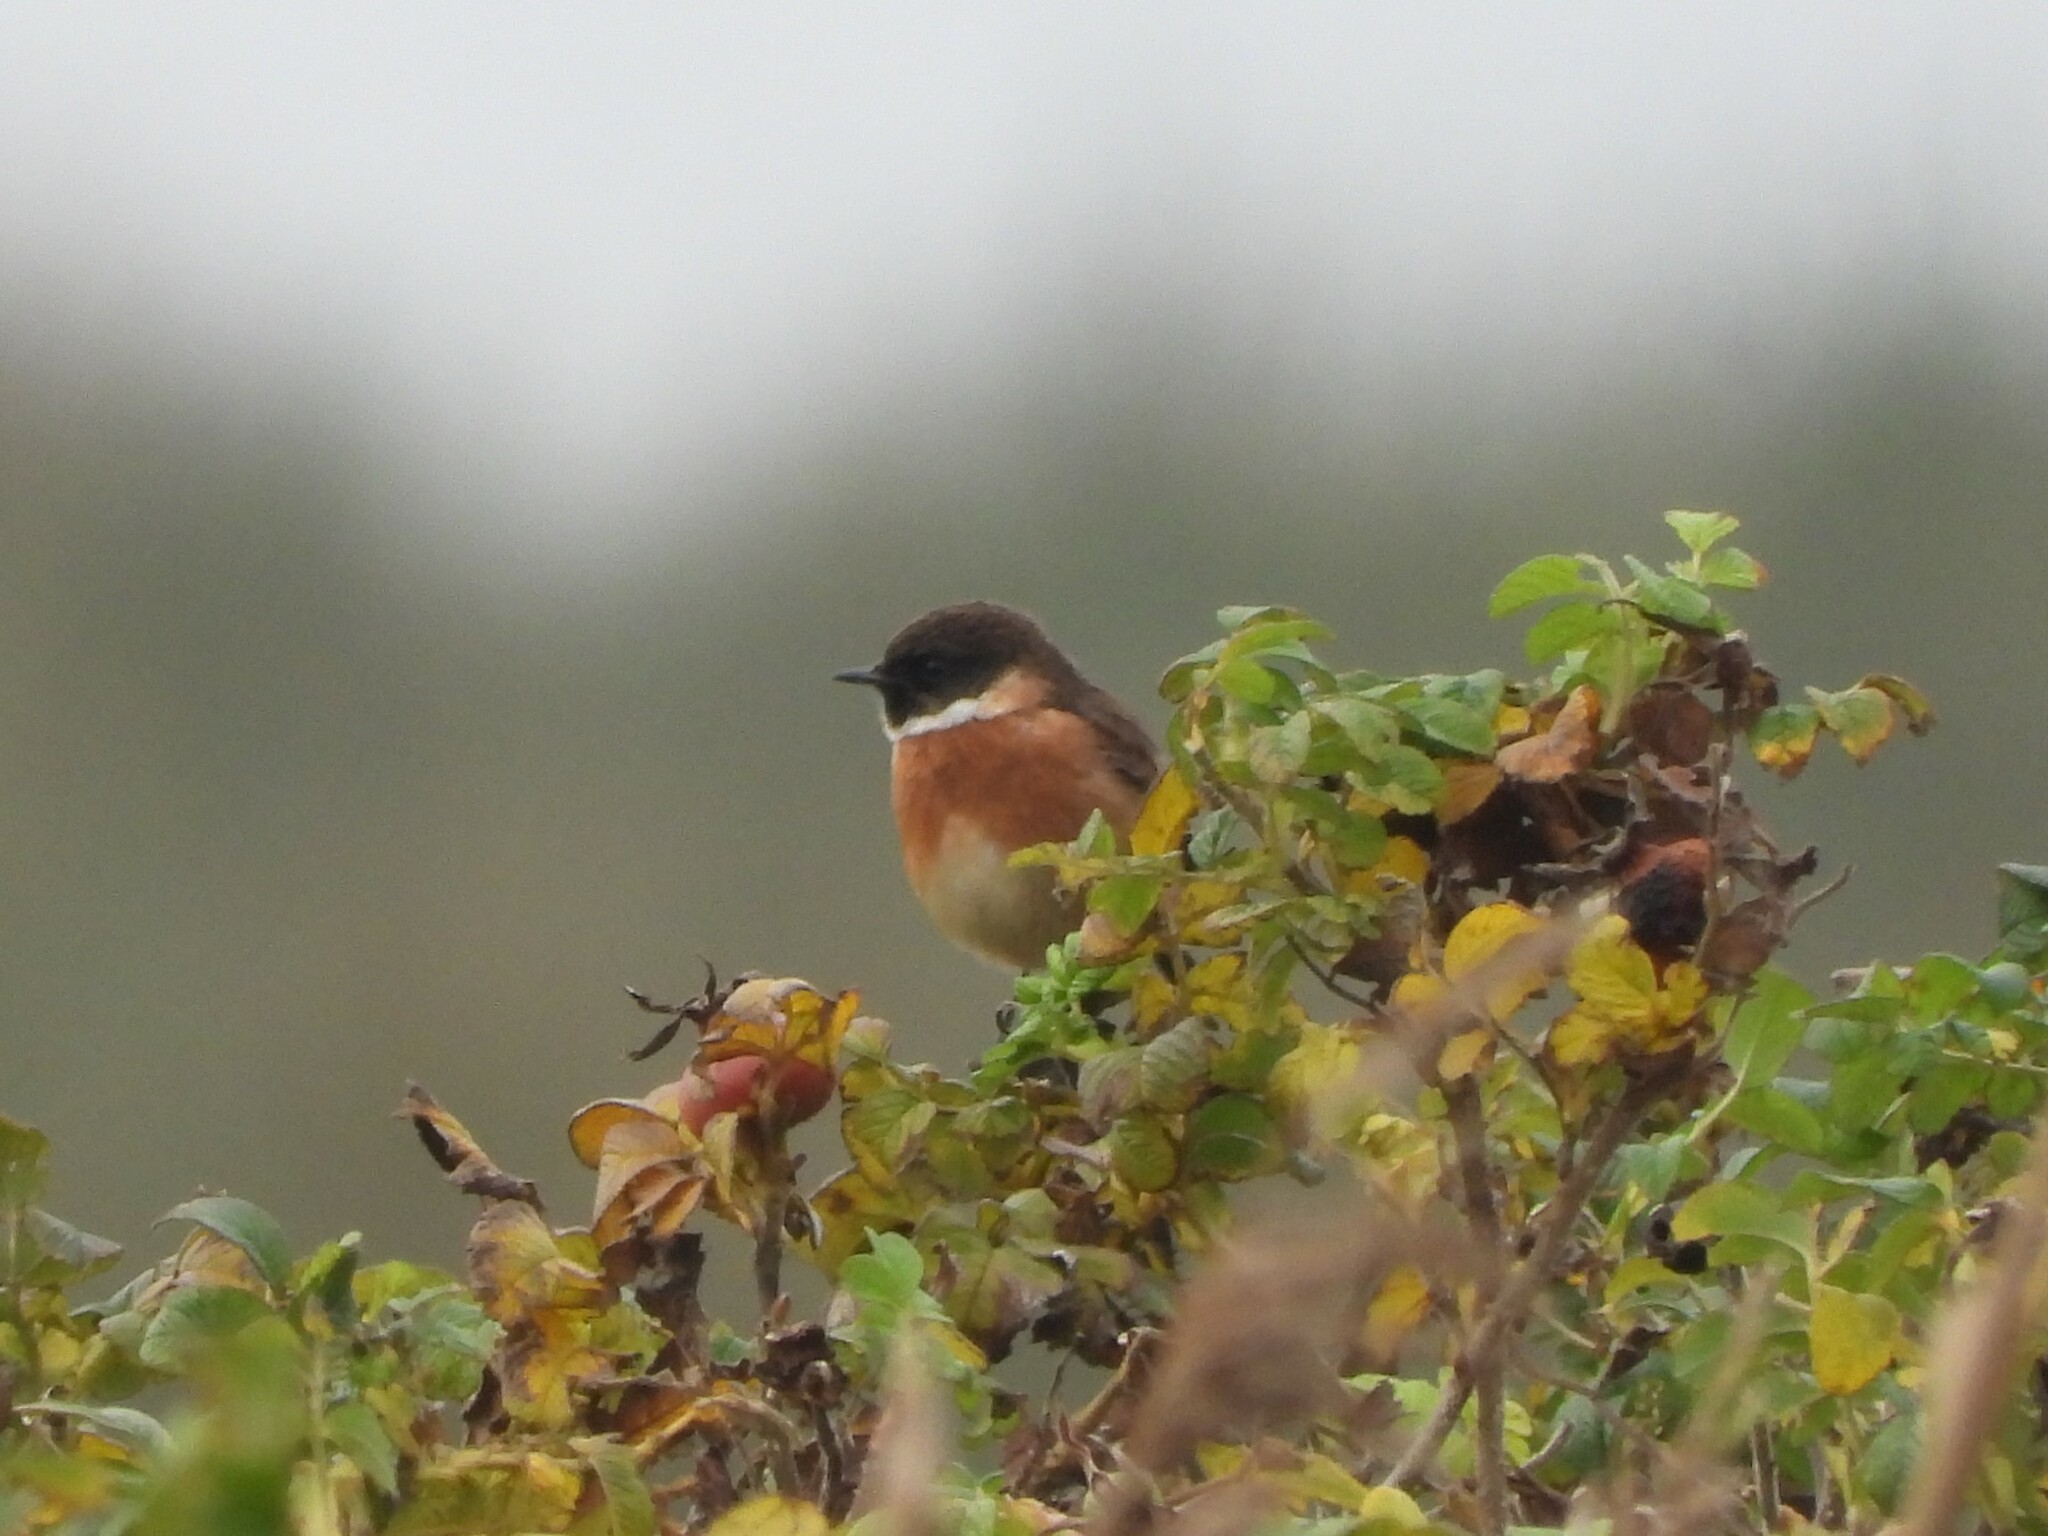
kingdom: Animalia
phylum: Chordata
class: Aves
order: Passeriformes
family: Muscicapidae
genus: Saxicola
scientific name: Saxicola rubicola
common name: European stonechat
